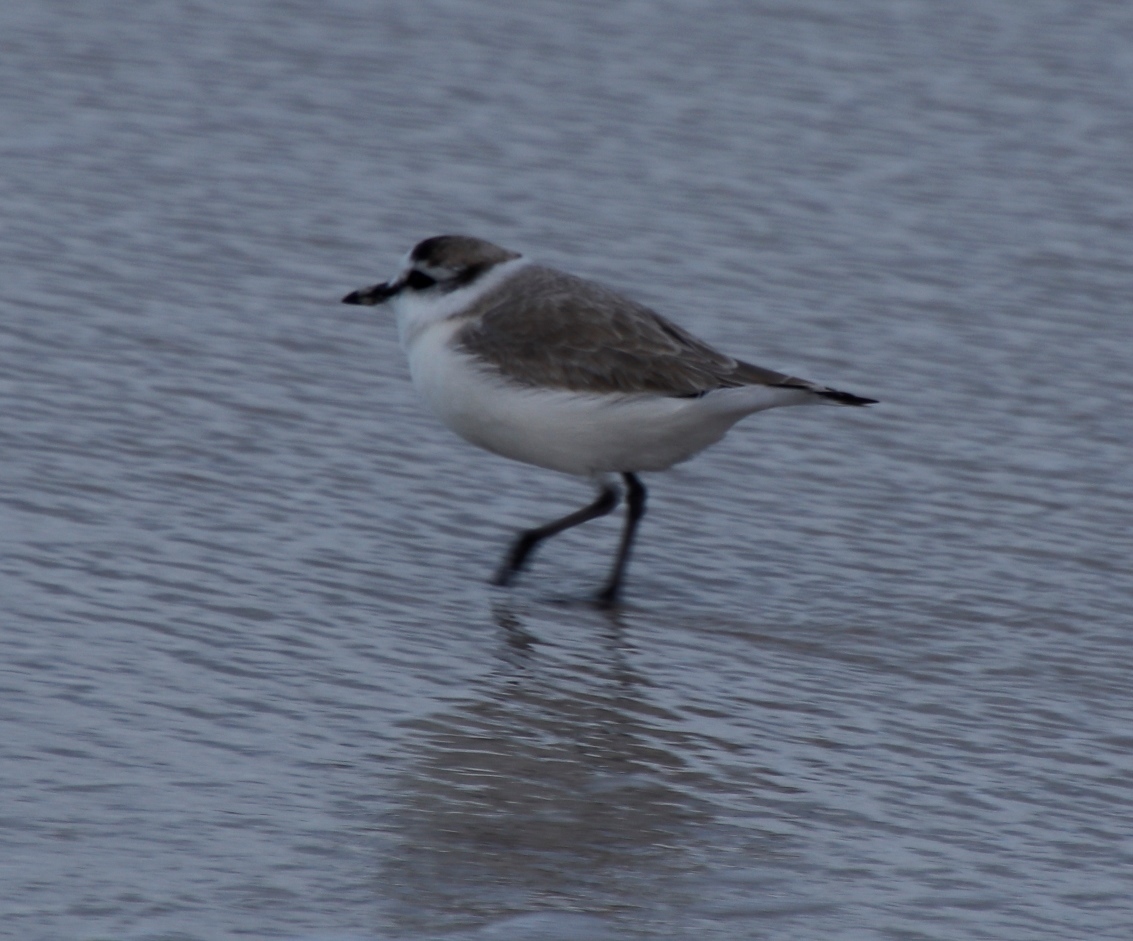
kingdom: Animalia
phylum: Chordata
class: Aves
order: Charadriiformes
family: Charadriidae
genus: Anarhynchus
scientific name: Anarhynchus
